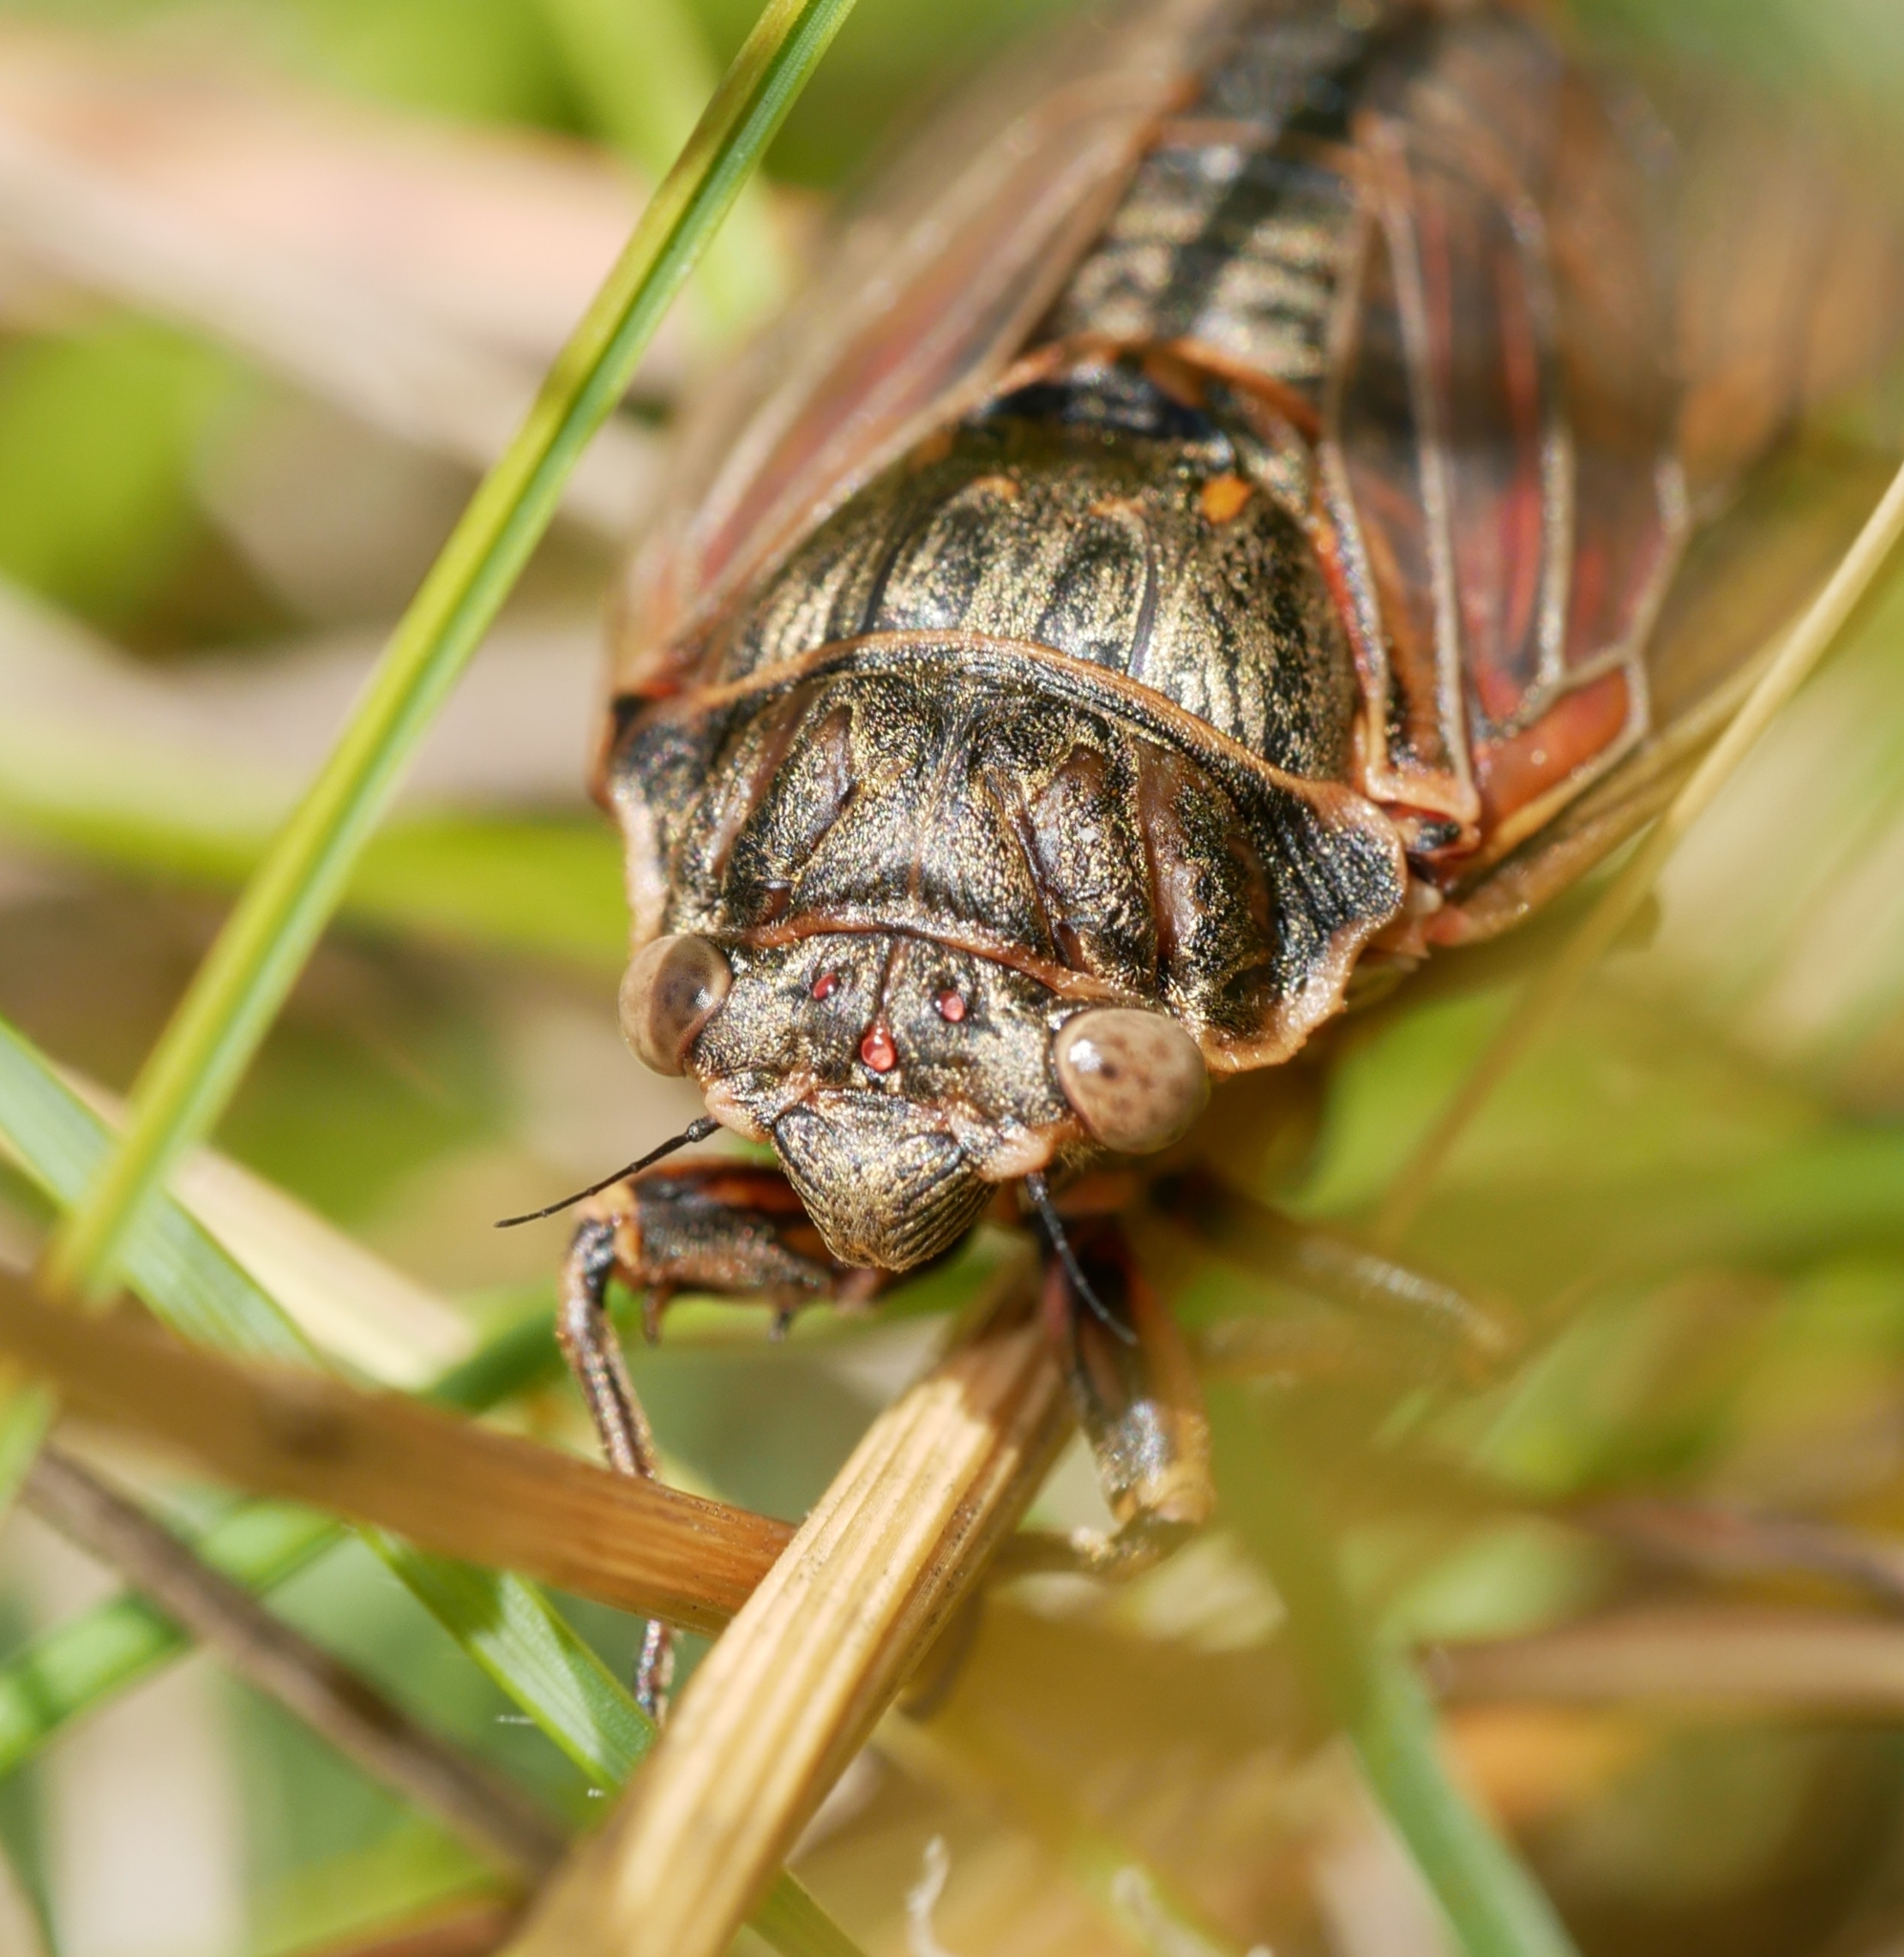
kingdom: Animalia
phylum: Arthropoda
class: Insecta
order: Hemiptera
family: Cicadidae
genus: Okanagana
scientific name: Okanagana triangulata
